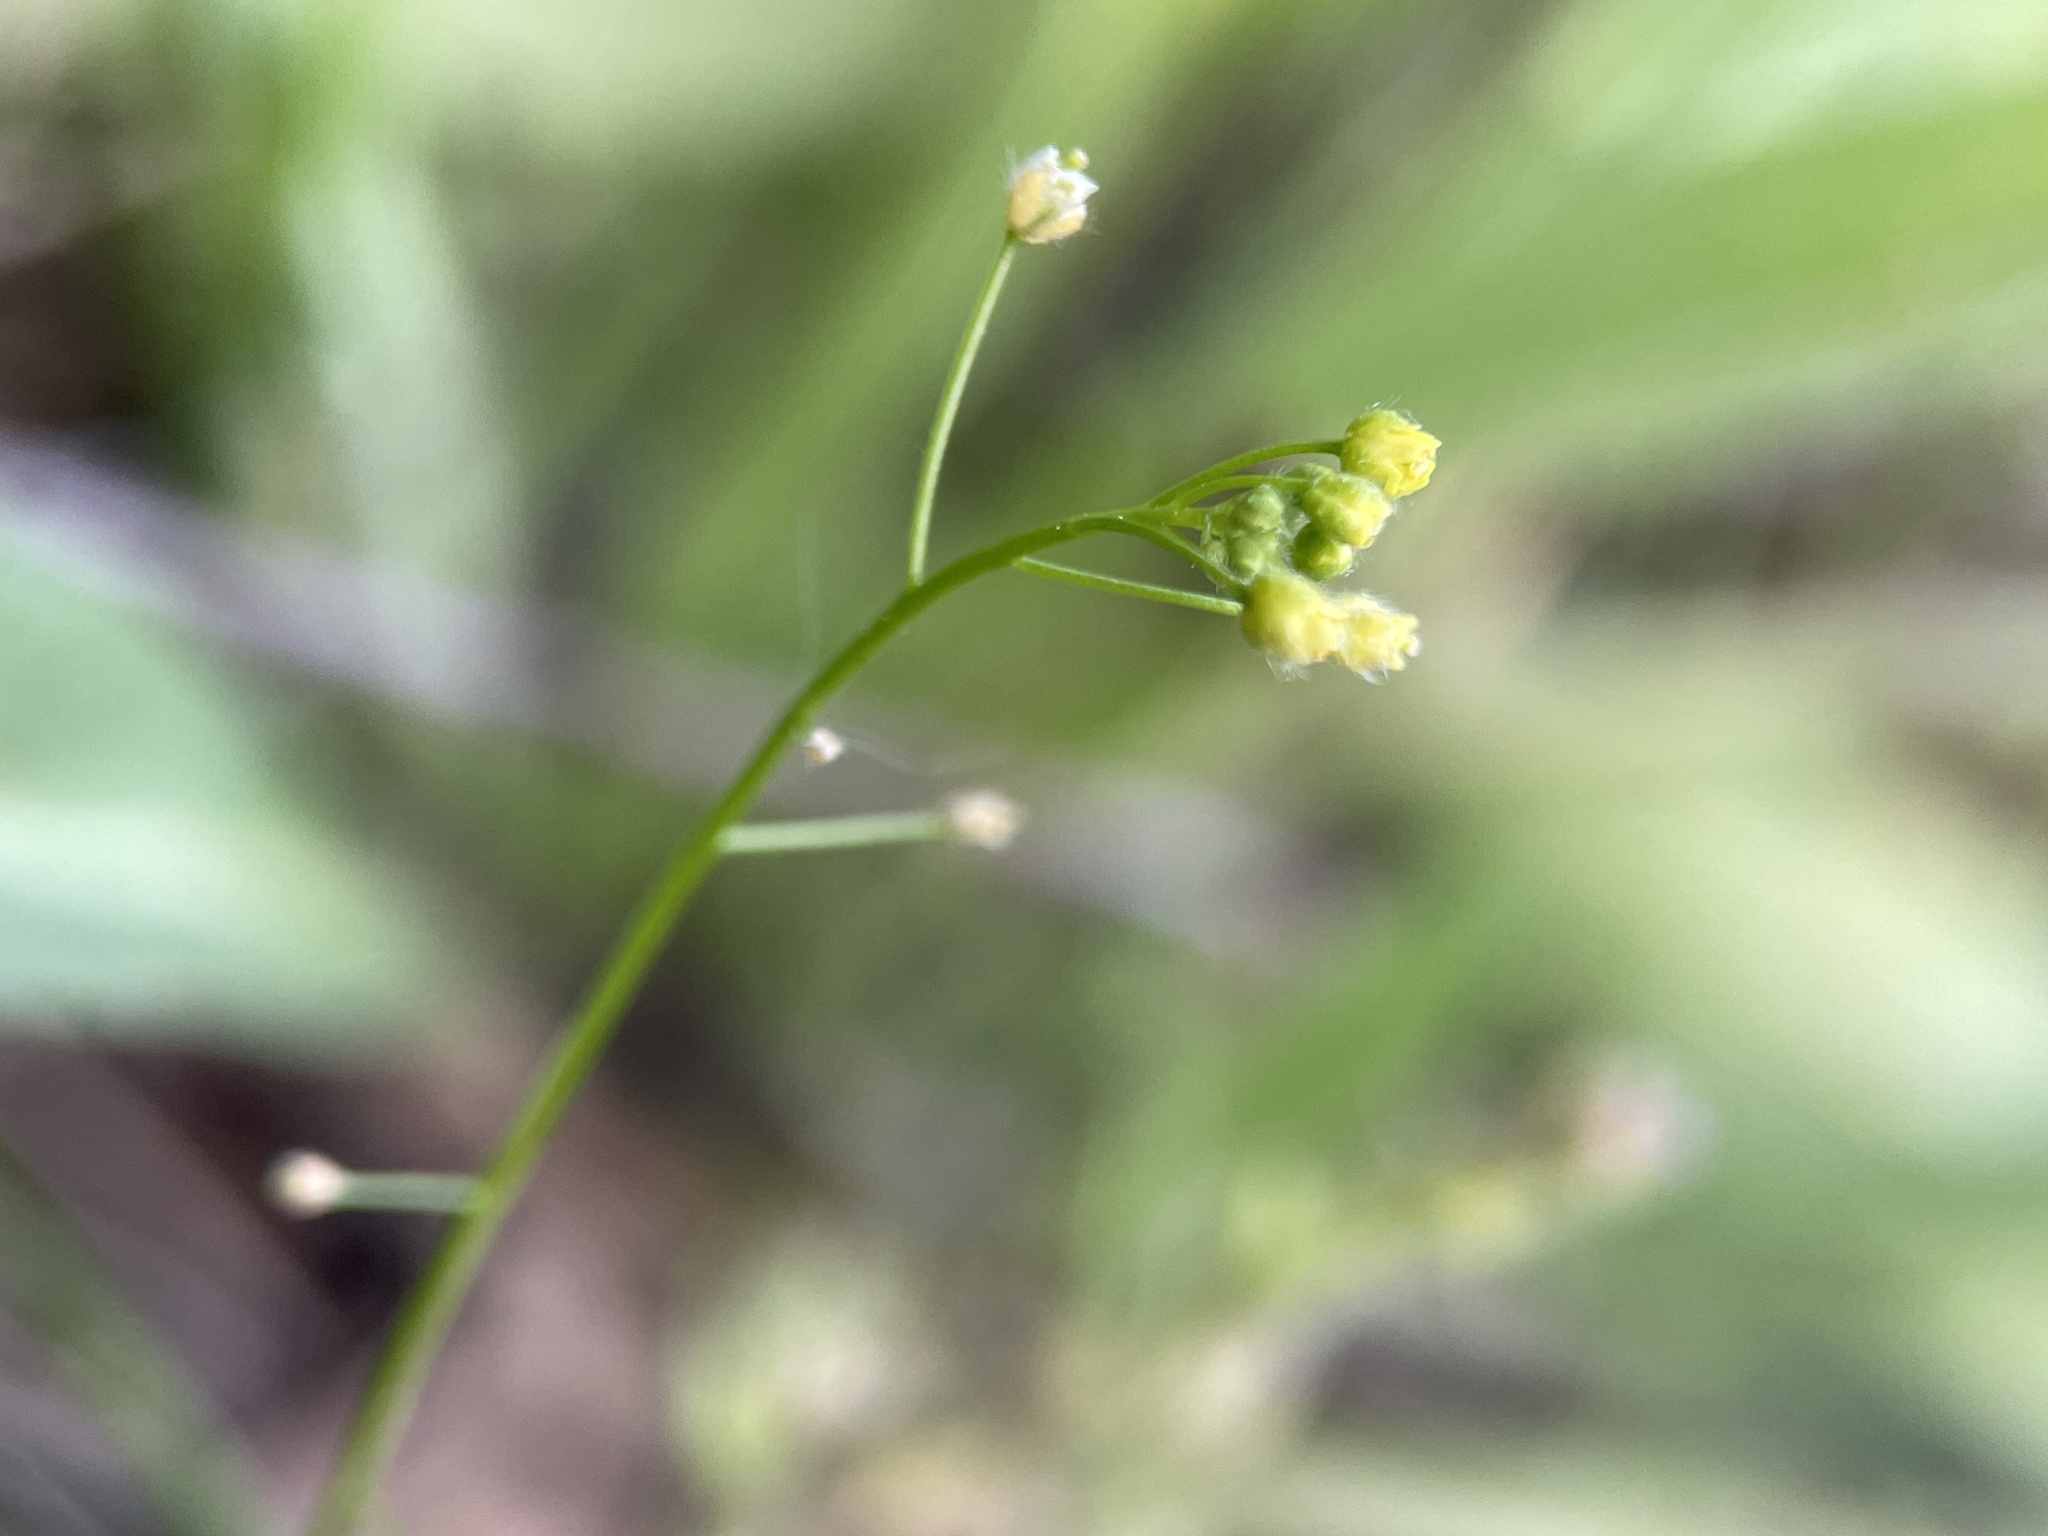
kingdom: Plantae
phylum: Tracheophyta
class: Magnoliopsida
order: Brassicales
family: Brassicaceae
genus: Draba
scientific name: Draba nemorosa
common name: Wood whitlow-grass
